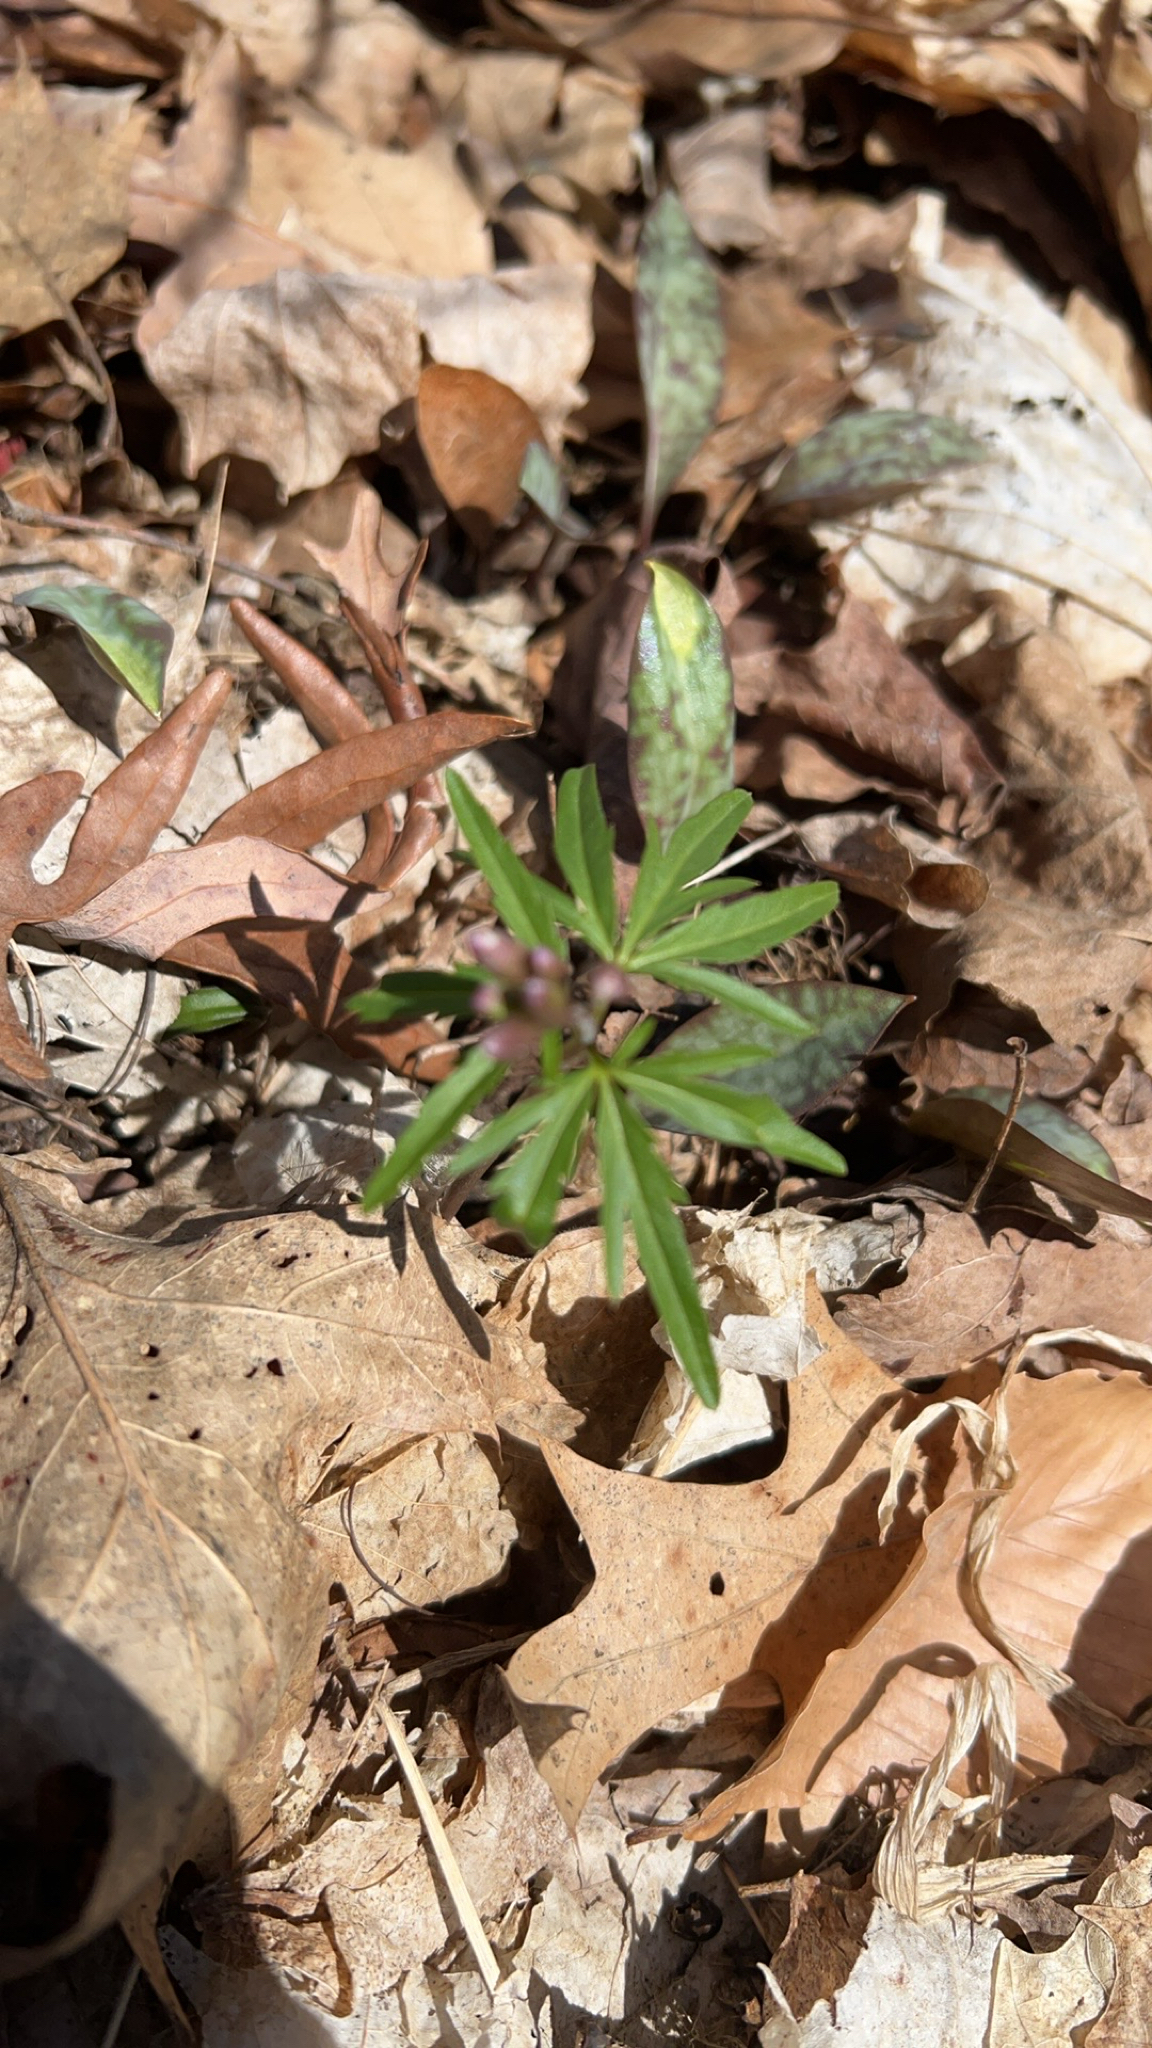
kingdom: Plantae
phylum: Tracheophyta
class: Magnoliopsida
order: Brassicales
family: Brassicaceae
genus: Cardamine
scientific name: Cardamine concatenata
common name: Cut-leaf toothcup
